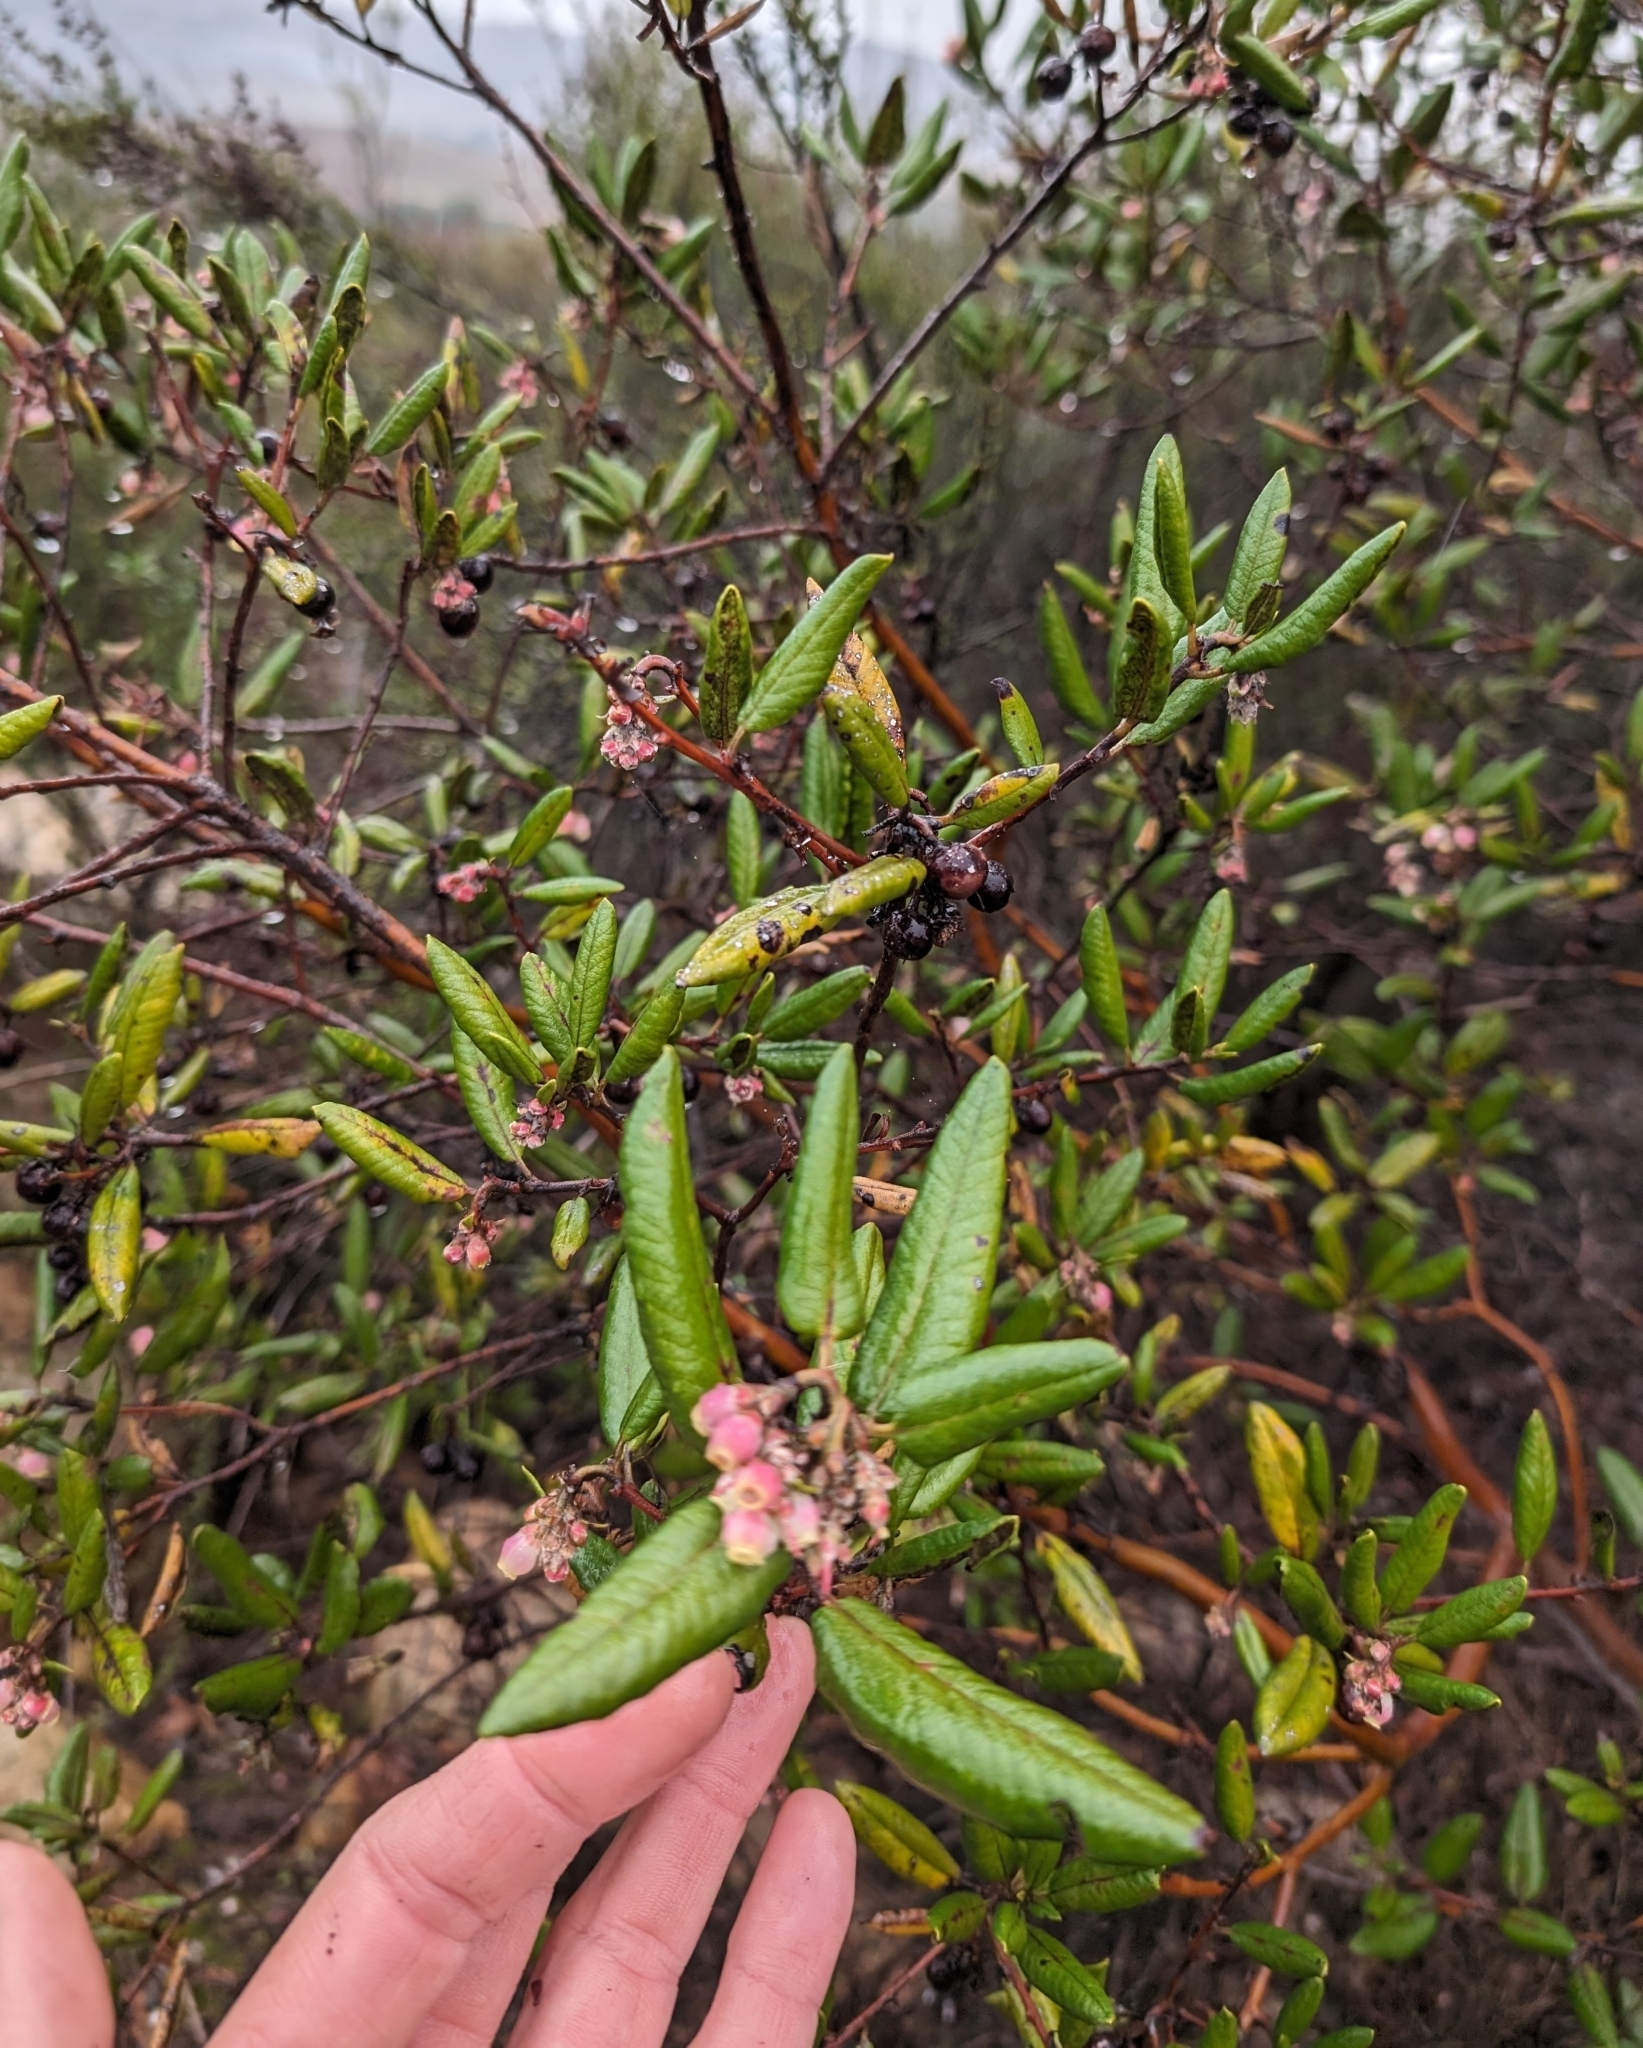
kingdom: Plantae
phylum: Tracheophyta
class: Magnoliopsida
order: Ericales
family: Ericaceae
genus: Arctostaphylos
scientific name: Arctostaphylos bicolor
